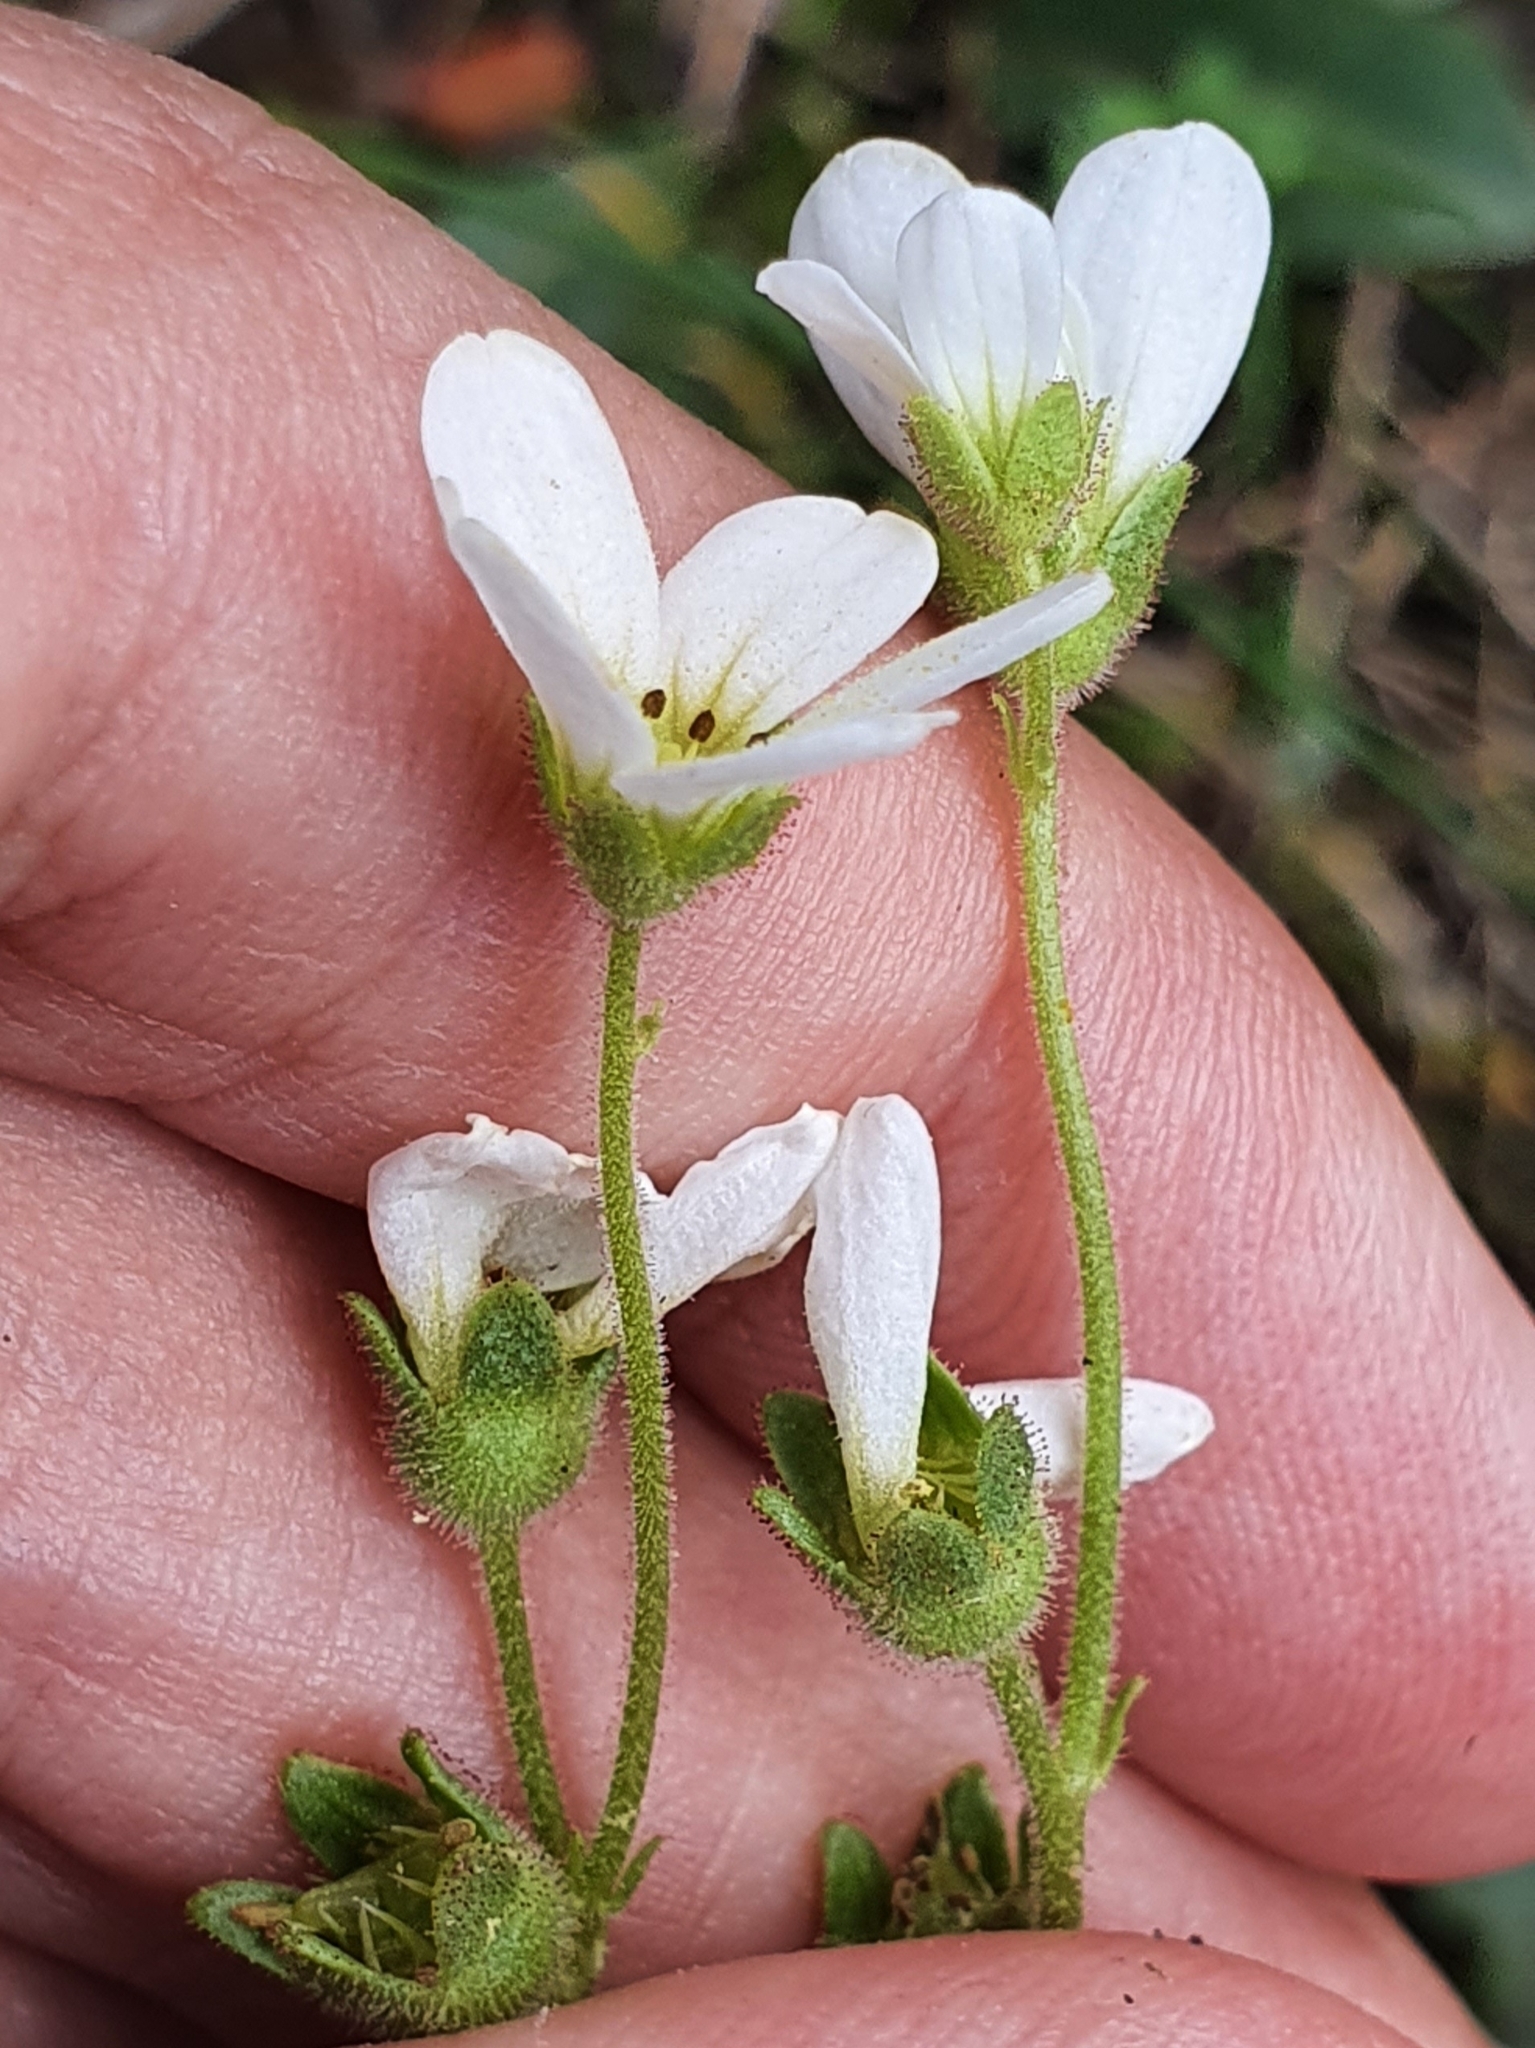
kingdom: Plantae
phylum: Tracheophyta
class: Magnoliopsida
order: Saxifragales
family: Saxifragaceae
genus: Saxifraga
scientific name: Saxifraga carpetana
